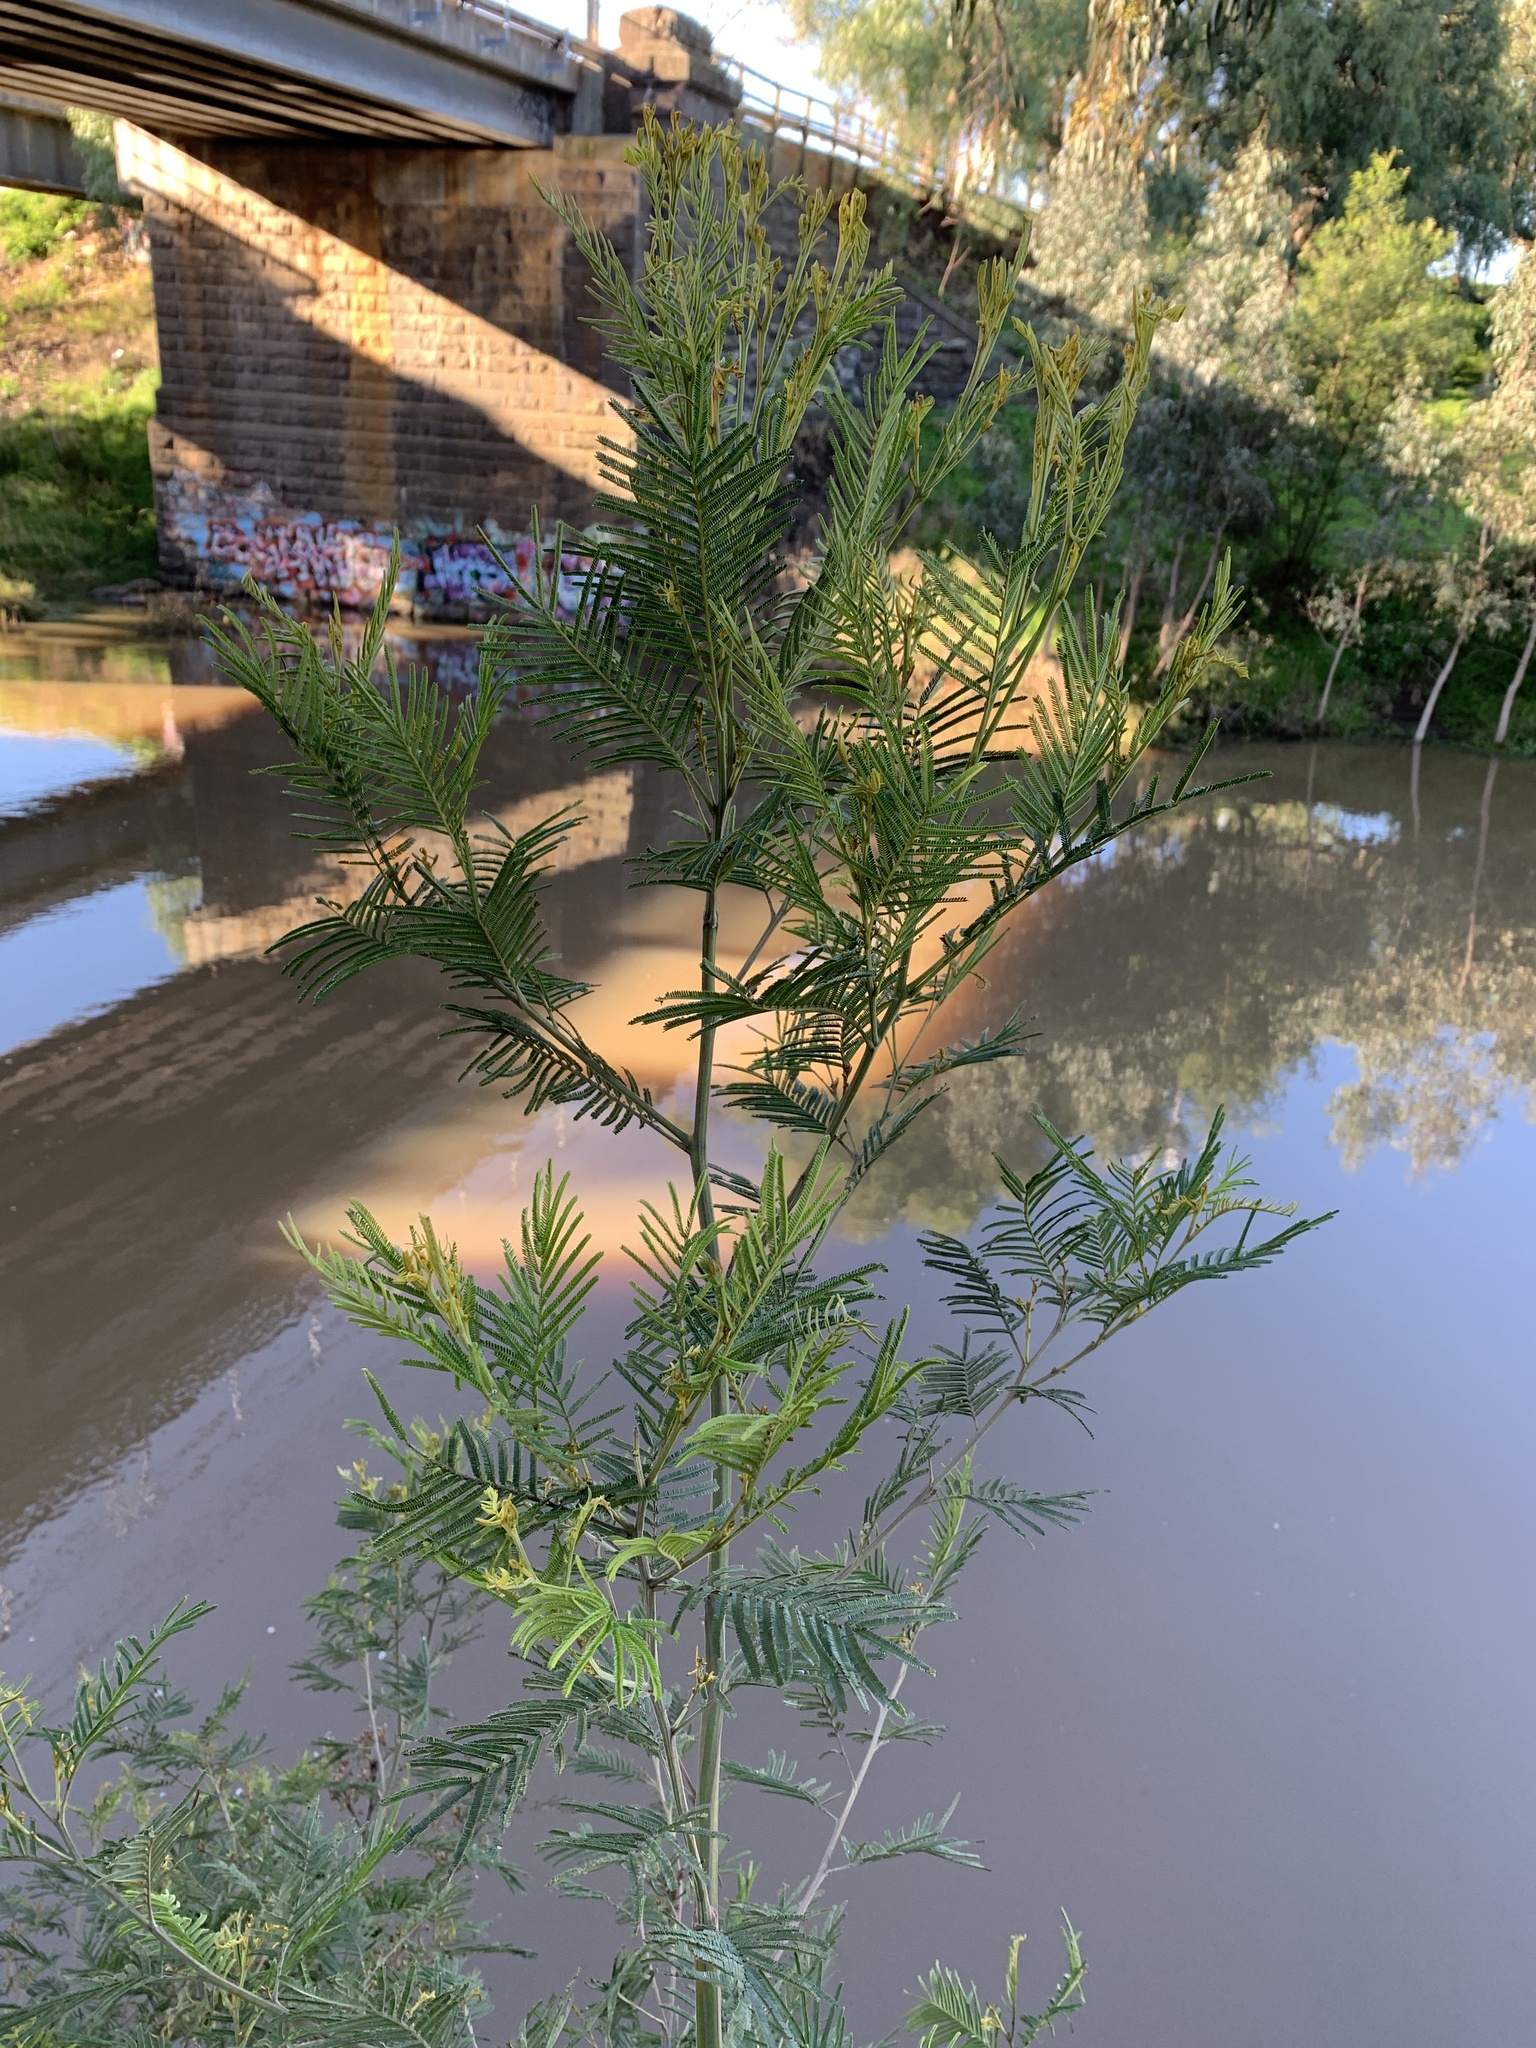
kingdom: Plantae
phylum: Tracheophyta
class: Magnoliopsida
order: Fabales
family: Fabaceae
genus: Acacia
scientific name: Acacia mearnsii
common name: Black wattle
